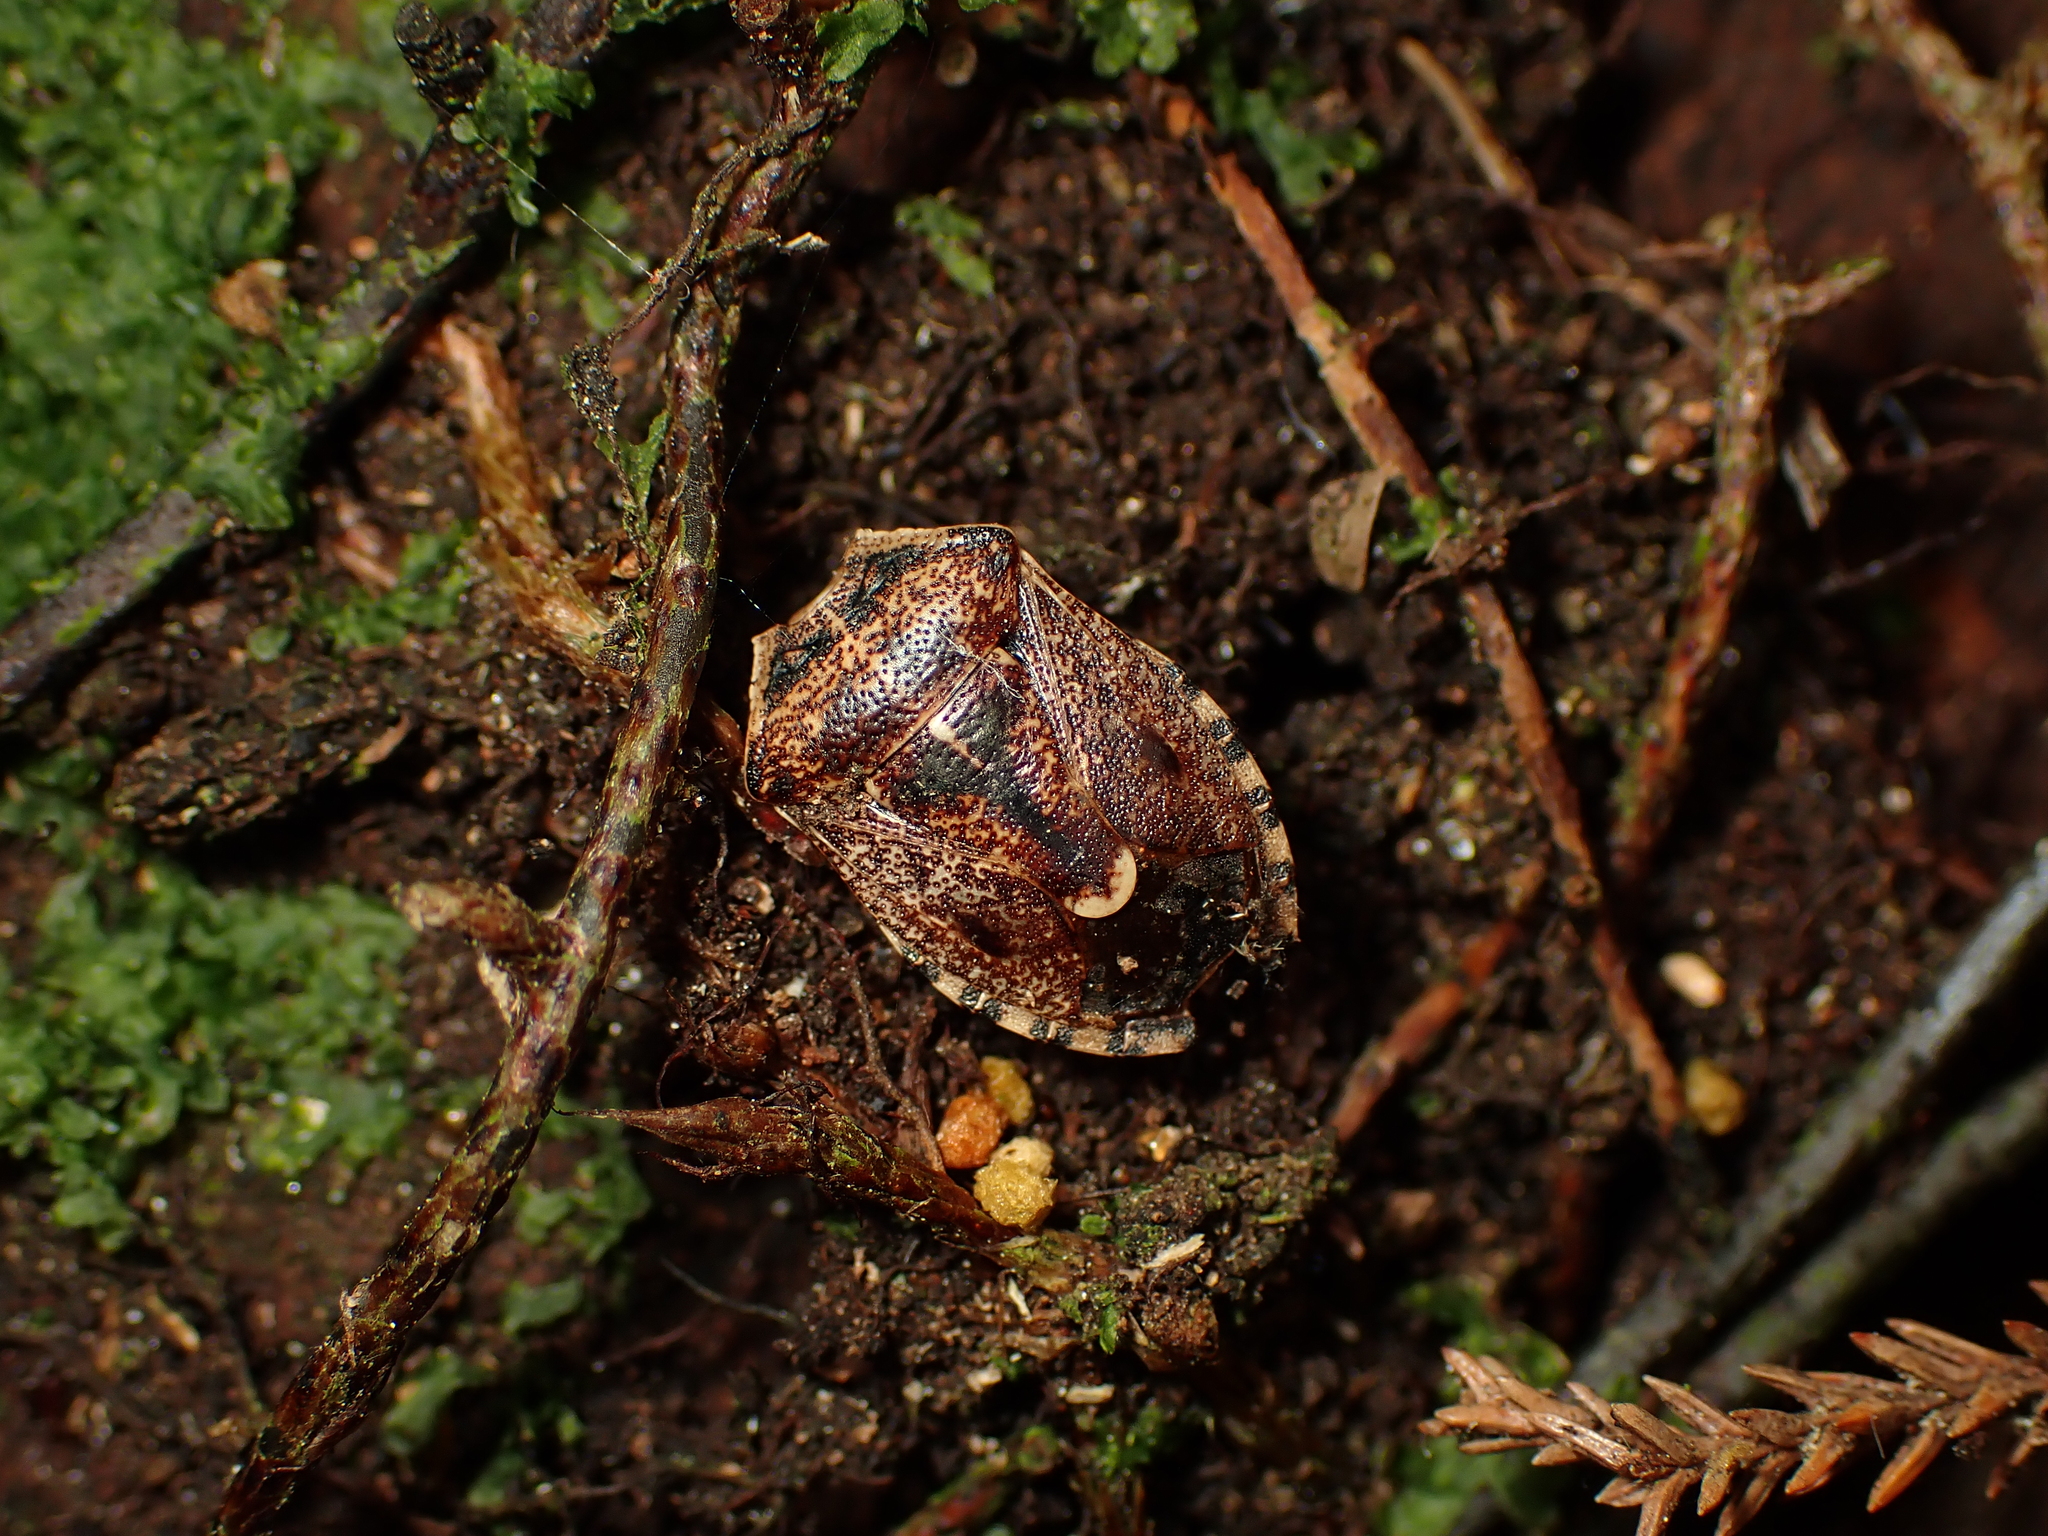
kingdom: Animalia
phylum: Arthropoda
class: Insecta
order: Hemiptera
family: Pentatomidae
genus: Cermatulus
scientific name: Cermatulus nasalis
